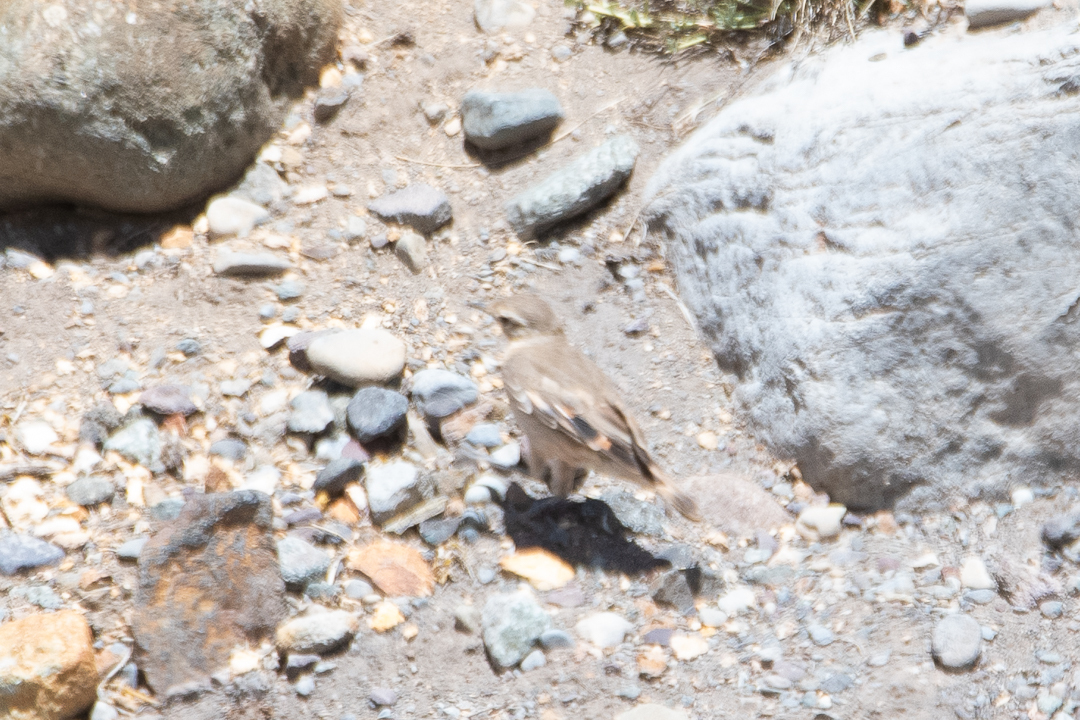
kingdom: Animalia
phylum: Chordata
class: Aves
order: Passeriformes
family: Furnariidae
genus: Geositta
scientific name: Geositta rufipennis
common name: Rufous-banded miner
